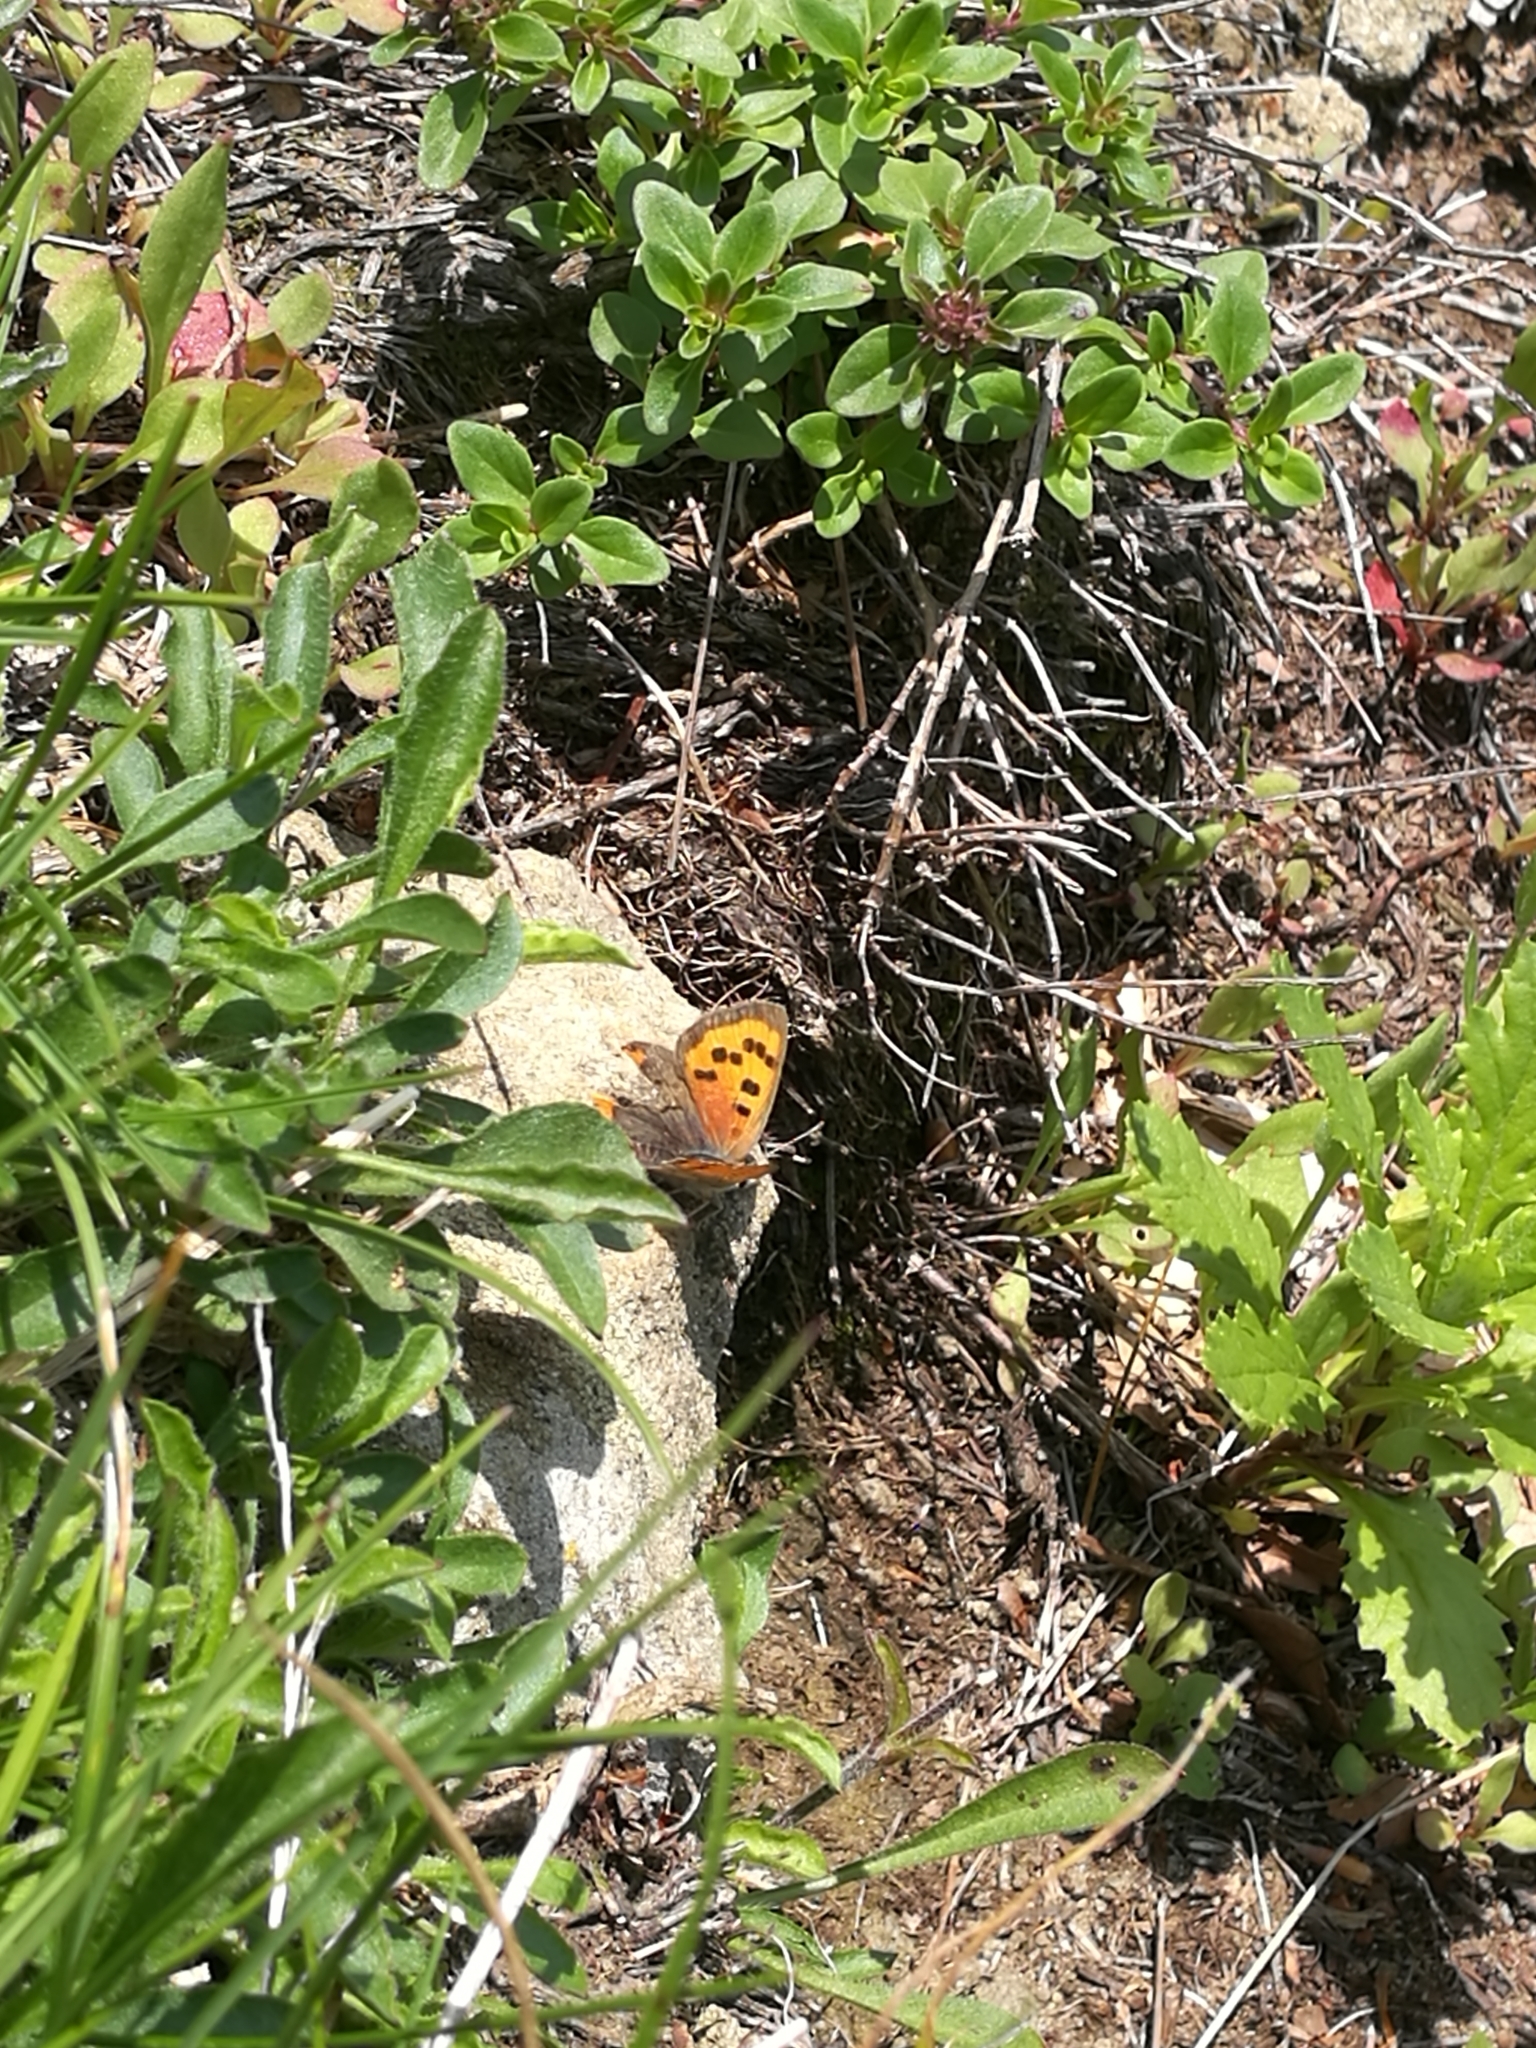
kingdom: Animalia
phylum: Arthropoda
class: Insecta
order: Lepidoptera
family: Lycaenidae
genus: Lycaena
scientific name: Lycaena phlaeas
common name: Small copper
